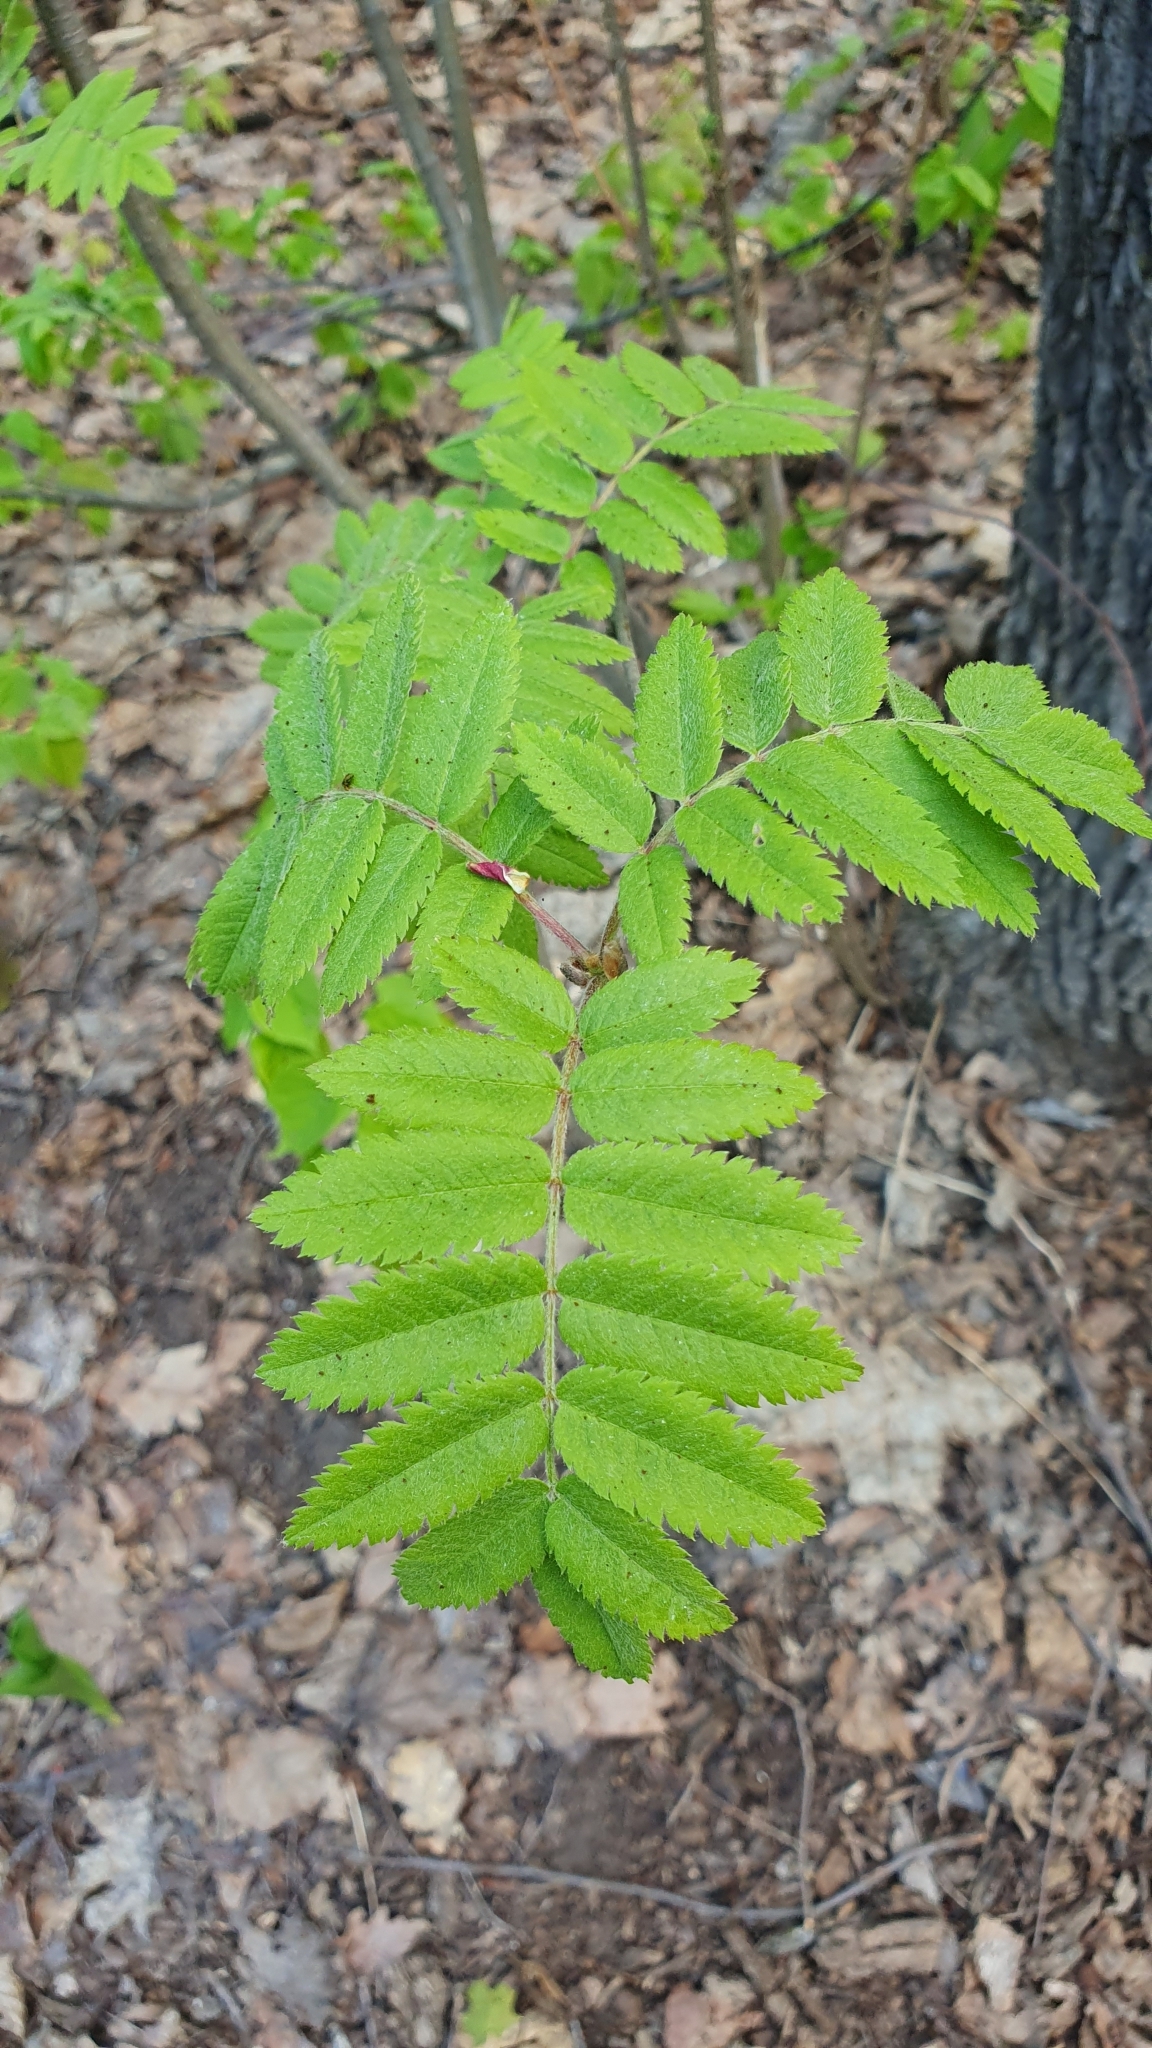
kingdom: Plantae
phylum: Tracheophyta
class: Magnoliopsida
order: Rosales
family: Rosaceae
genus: Sorbus
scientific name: Sorbus aucuparia
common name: Rowan
